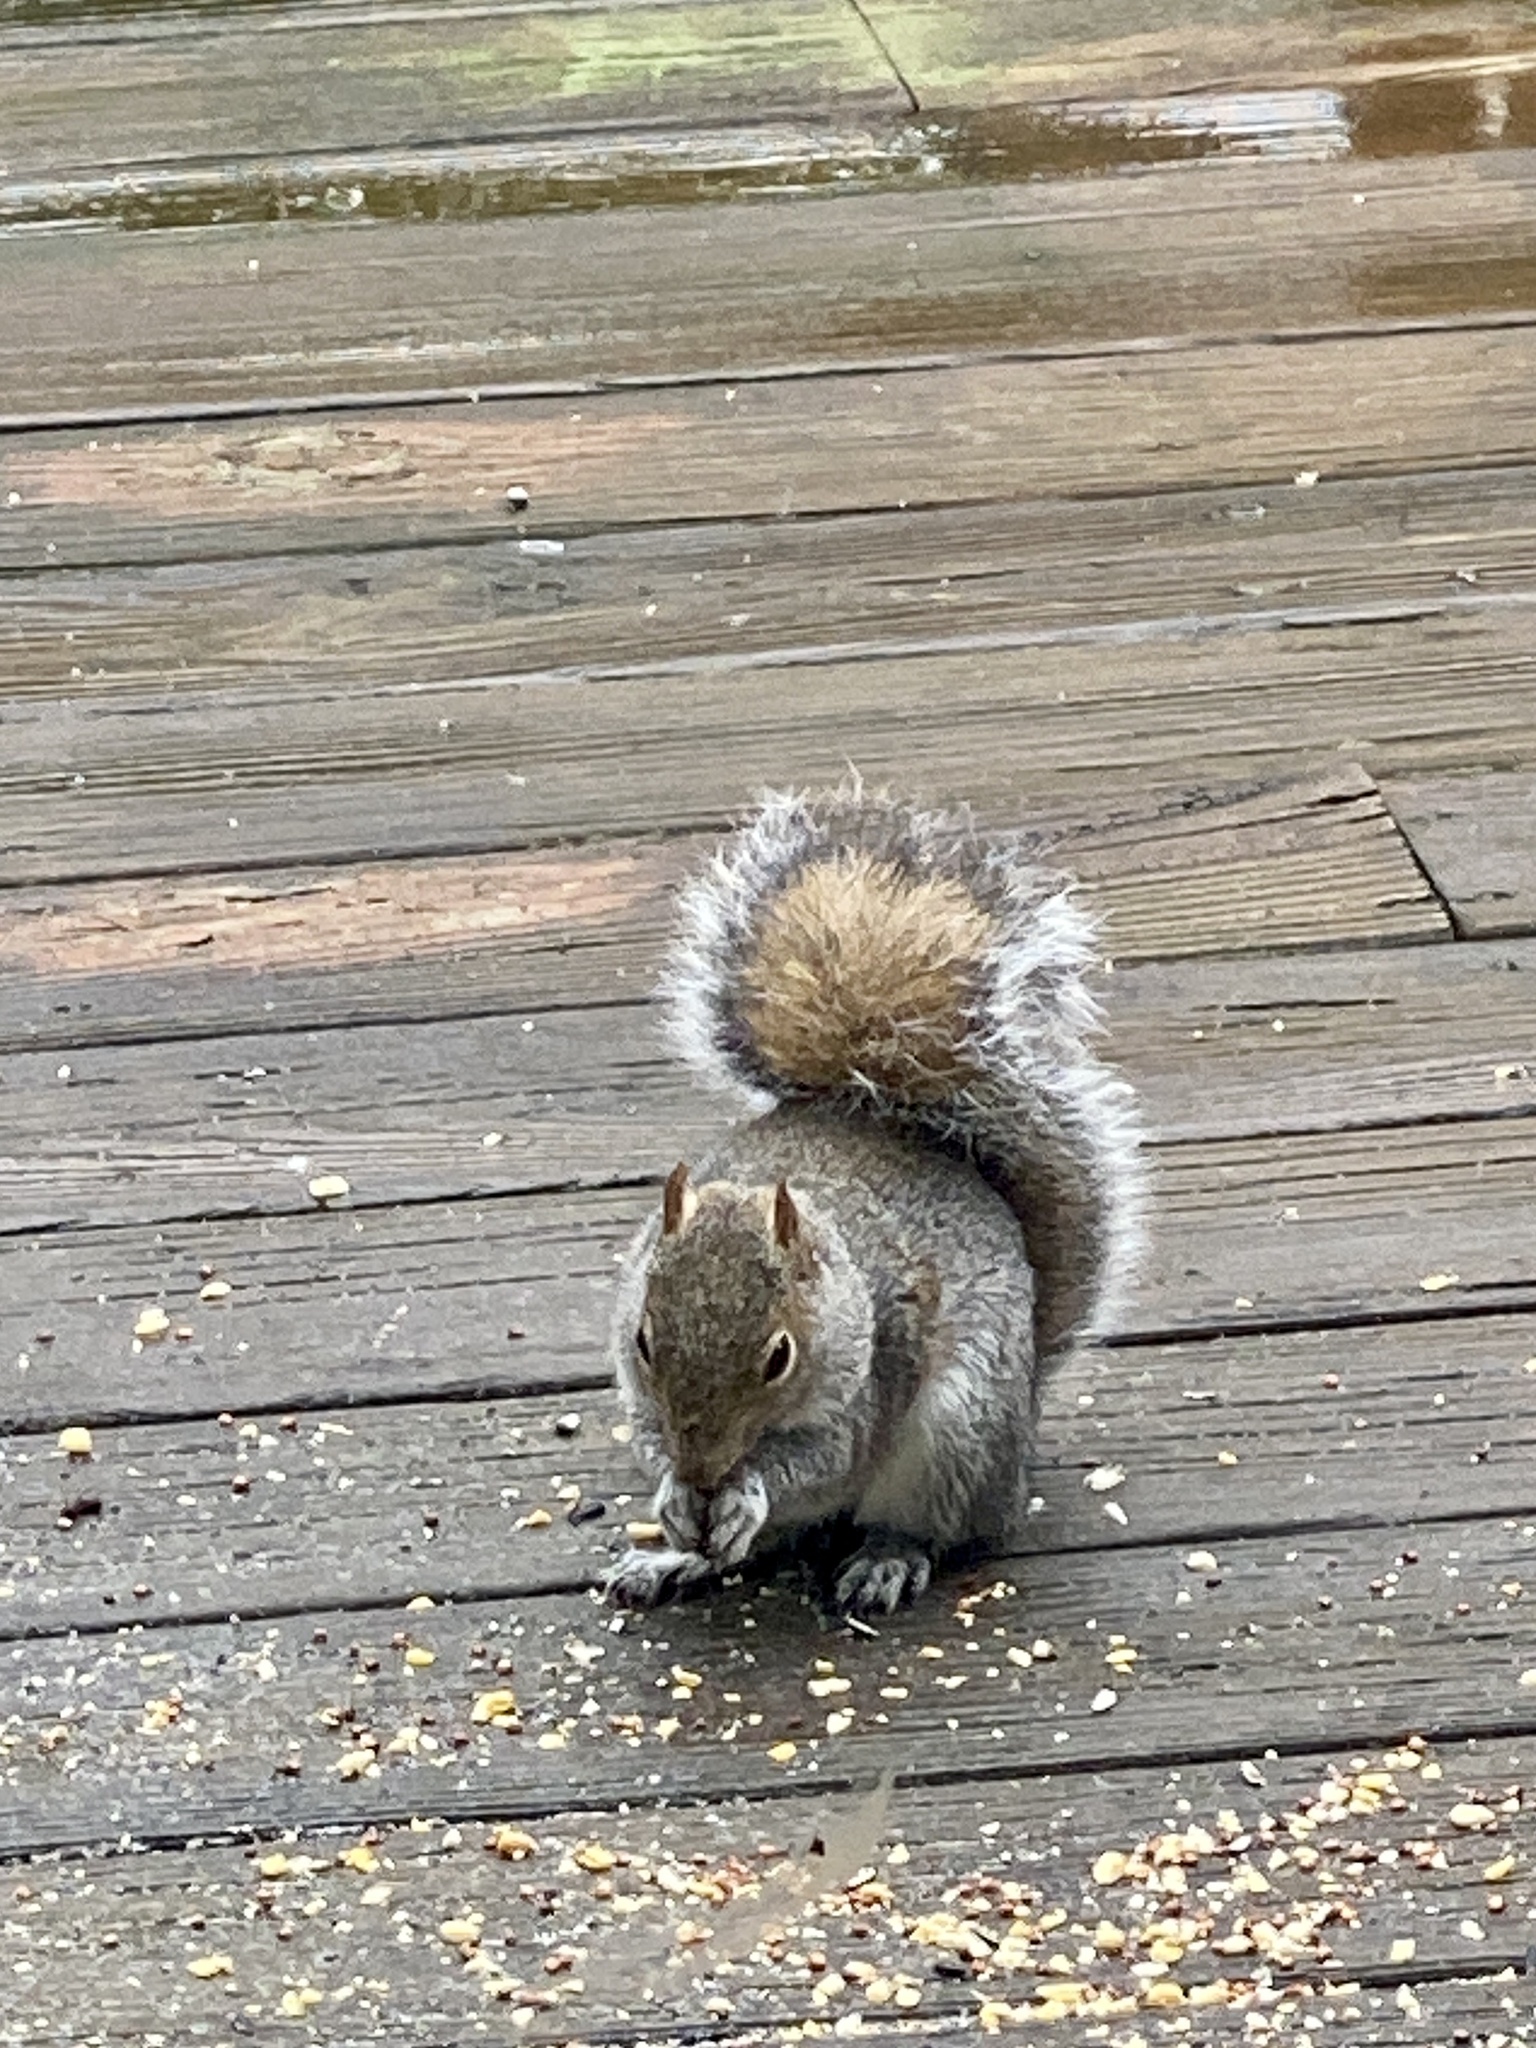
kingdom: Animalia
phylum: Chordata
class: Mammalia
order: Rodentia
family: Sciuridae
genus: Sciurus
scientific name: Sciurus carolinensis
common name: Eastern gray squirrel
